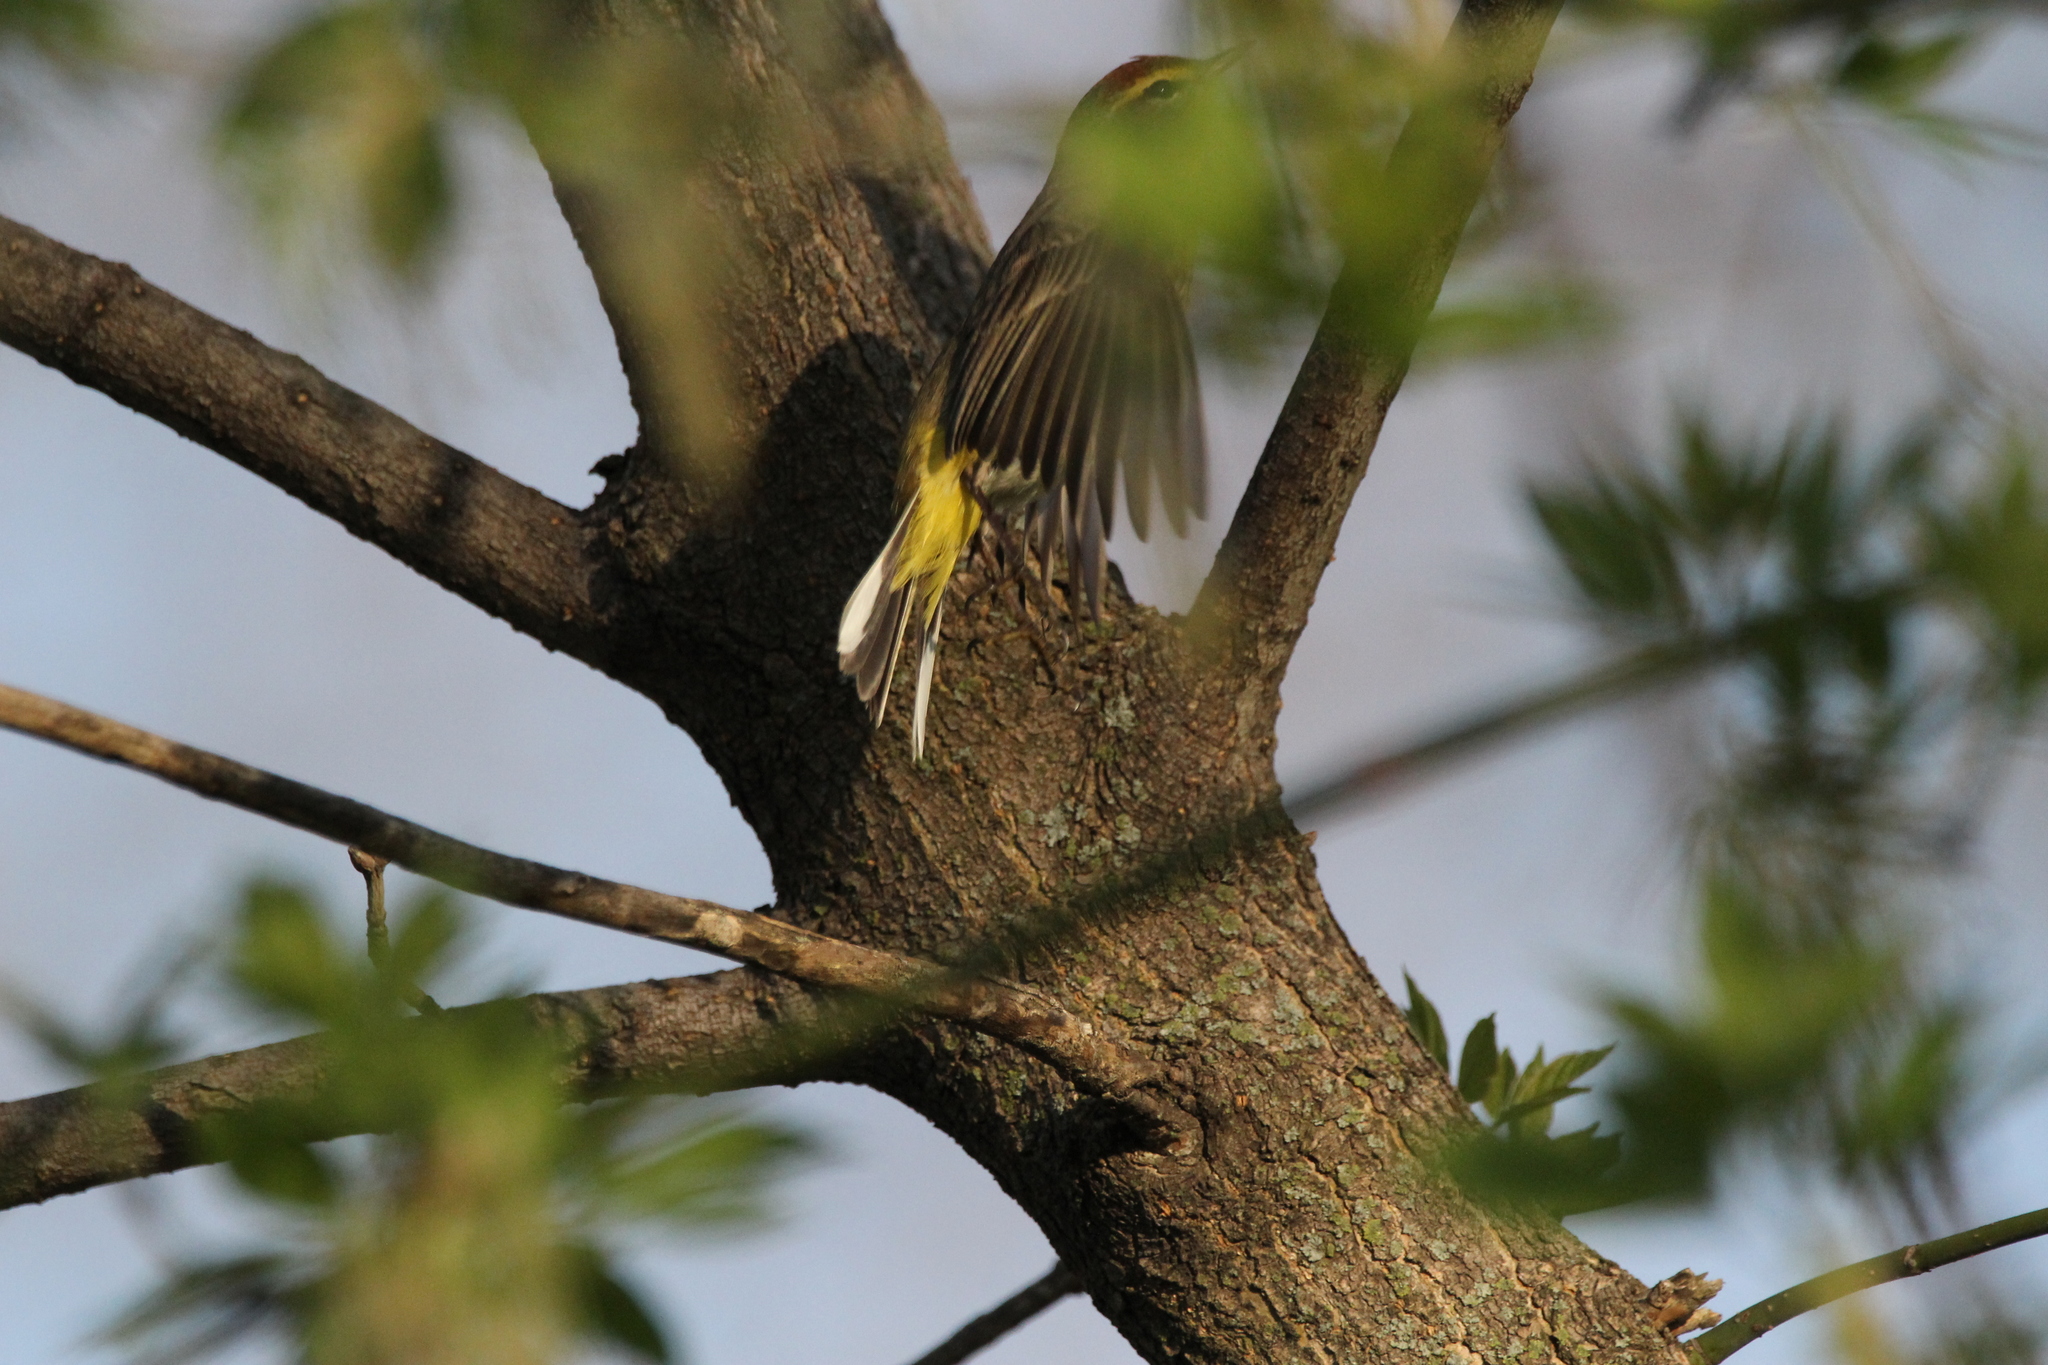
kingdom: Animalia
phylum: Chordata
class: Aves
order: Passeriformes
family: Parulidae
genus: Setophaga
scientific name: Setophaga palmarum
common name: Palm warbler
